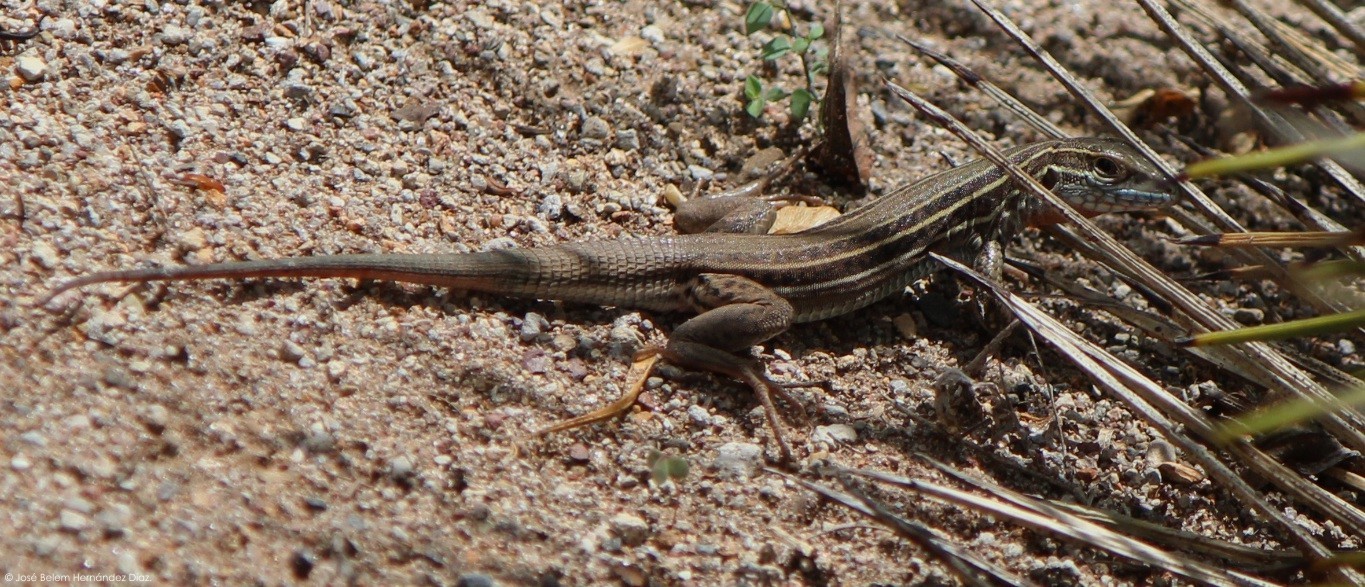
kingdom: Animalia
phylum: Chordata
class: Squamata
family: Teiidae
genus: Aspidoscelis
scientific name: Aspidoscelis gularis
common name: Eastern spotted whiptail
